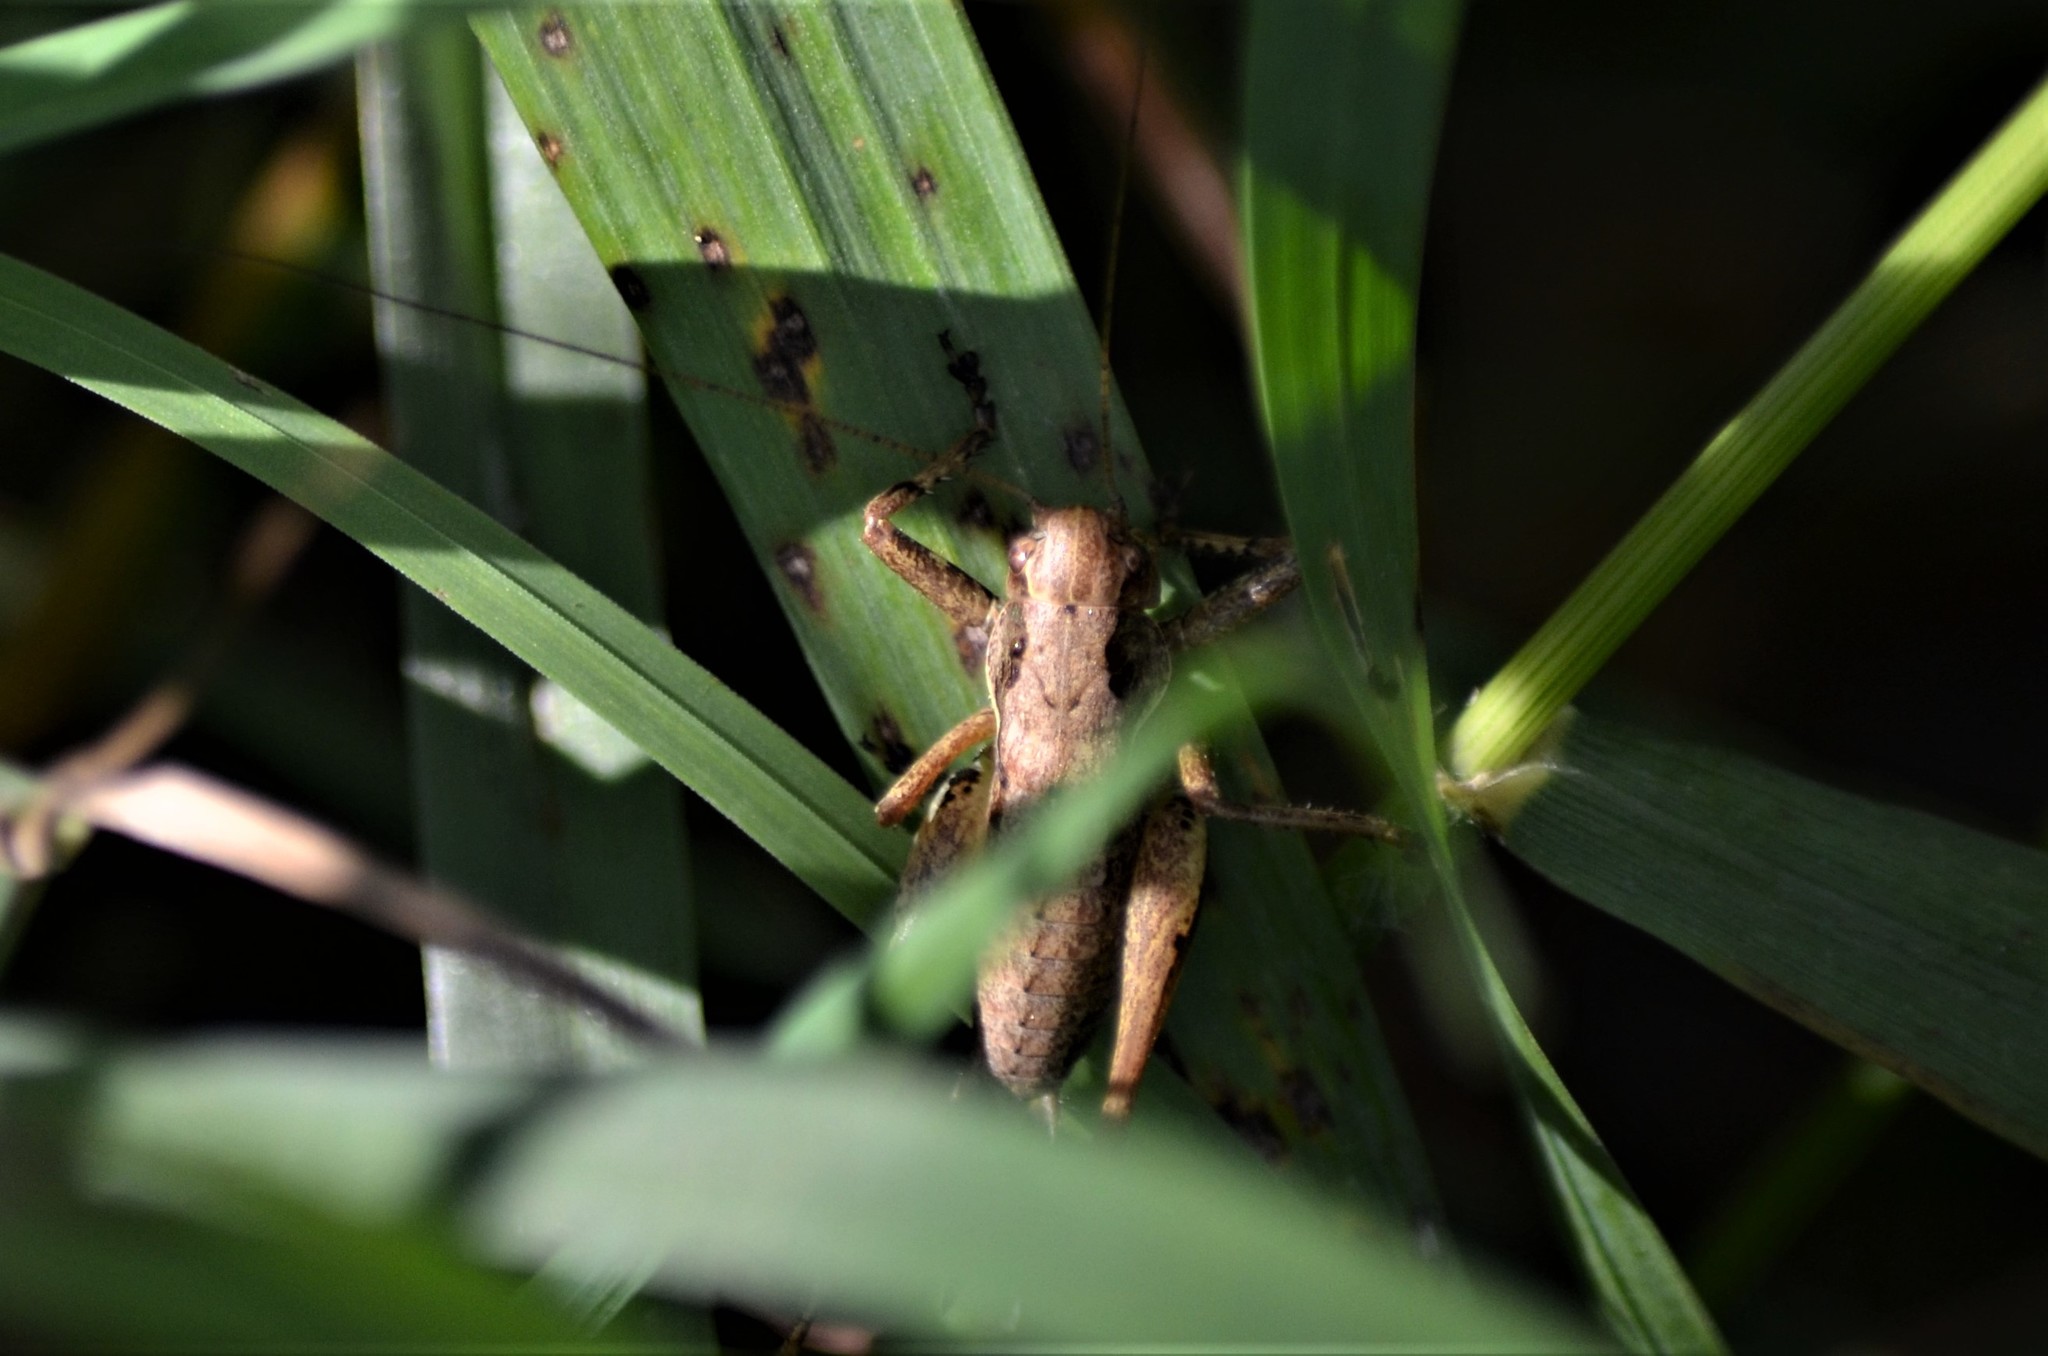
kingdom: Animalia
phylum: Arthropoda
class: Insecta
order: Orthoptera
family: Tettigoniidae
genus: Pholidoptera
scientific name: Pholidoptera griseoaptera
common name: Dark bush-cricket
